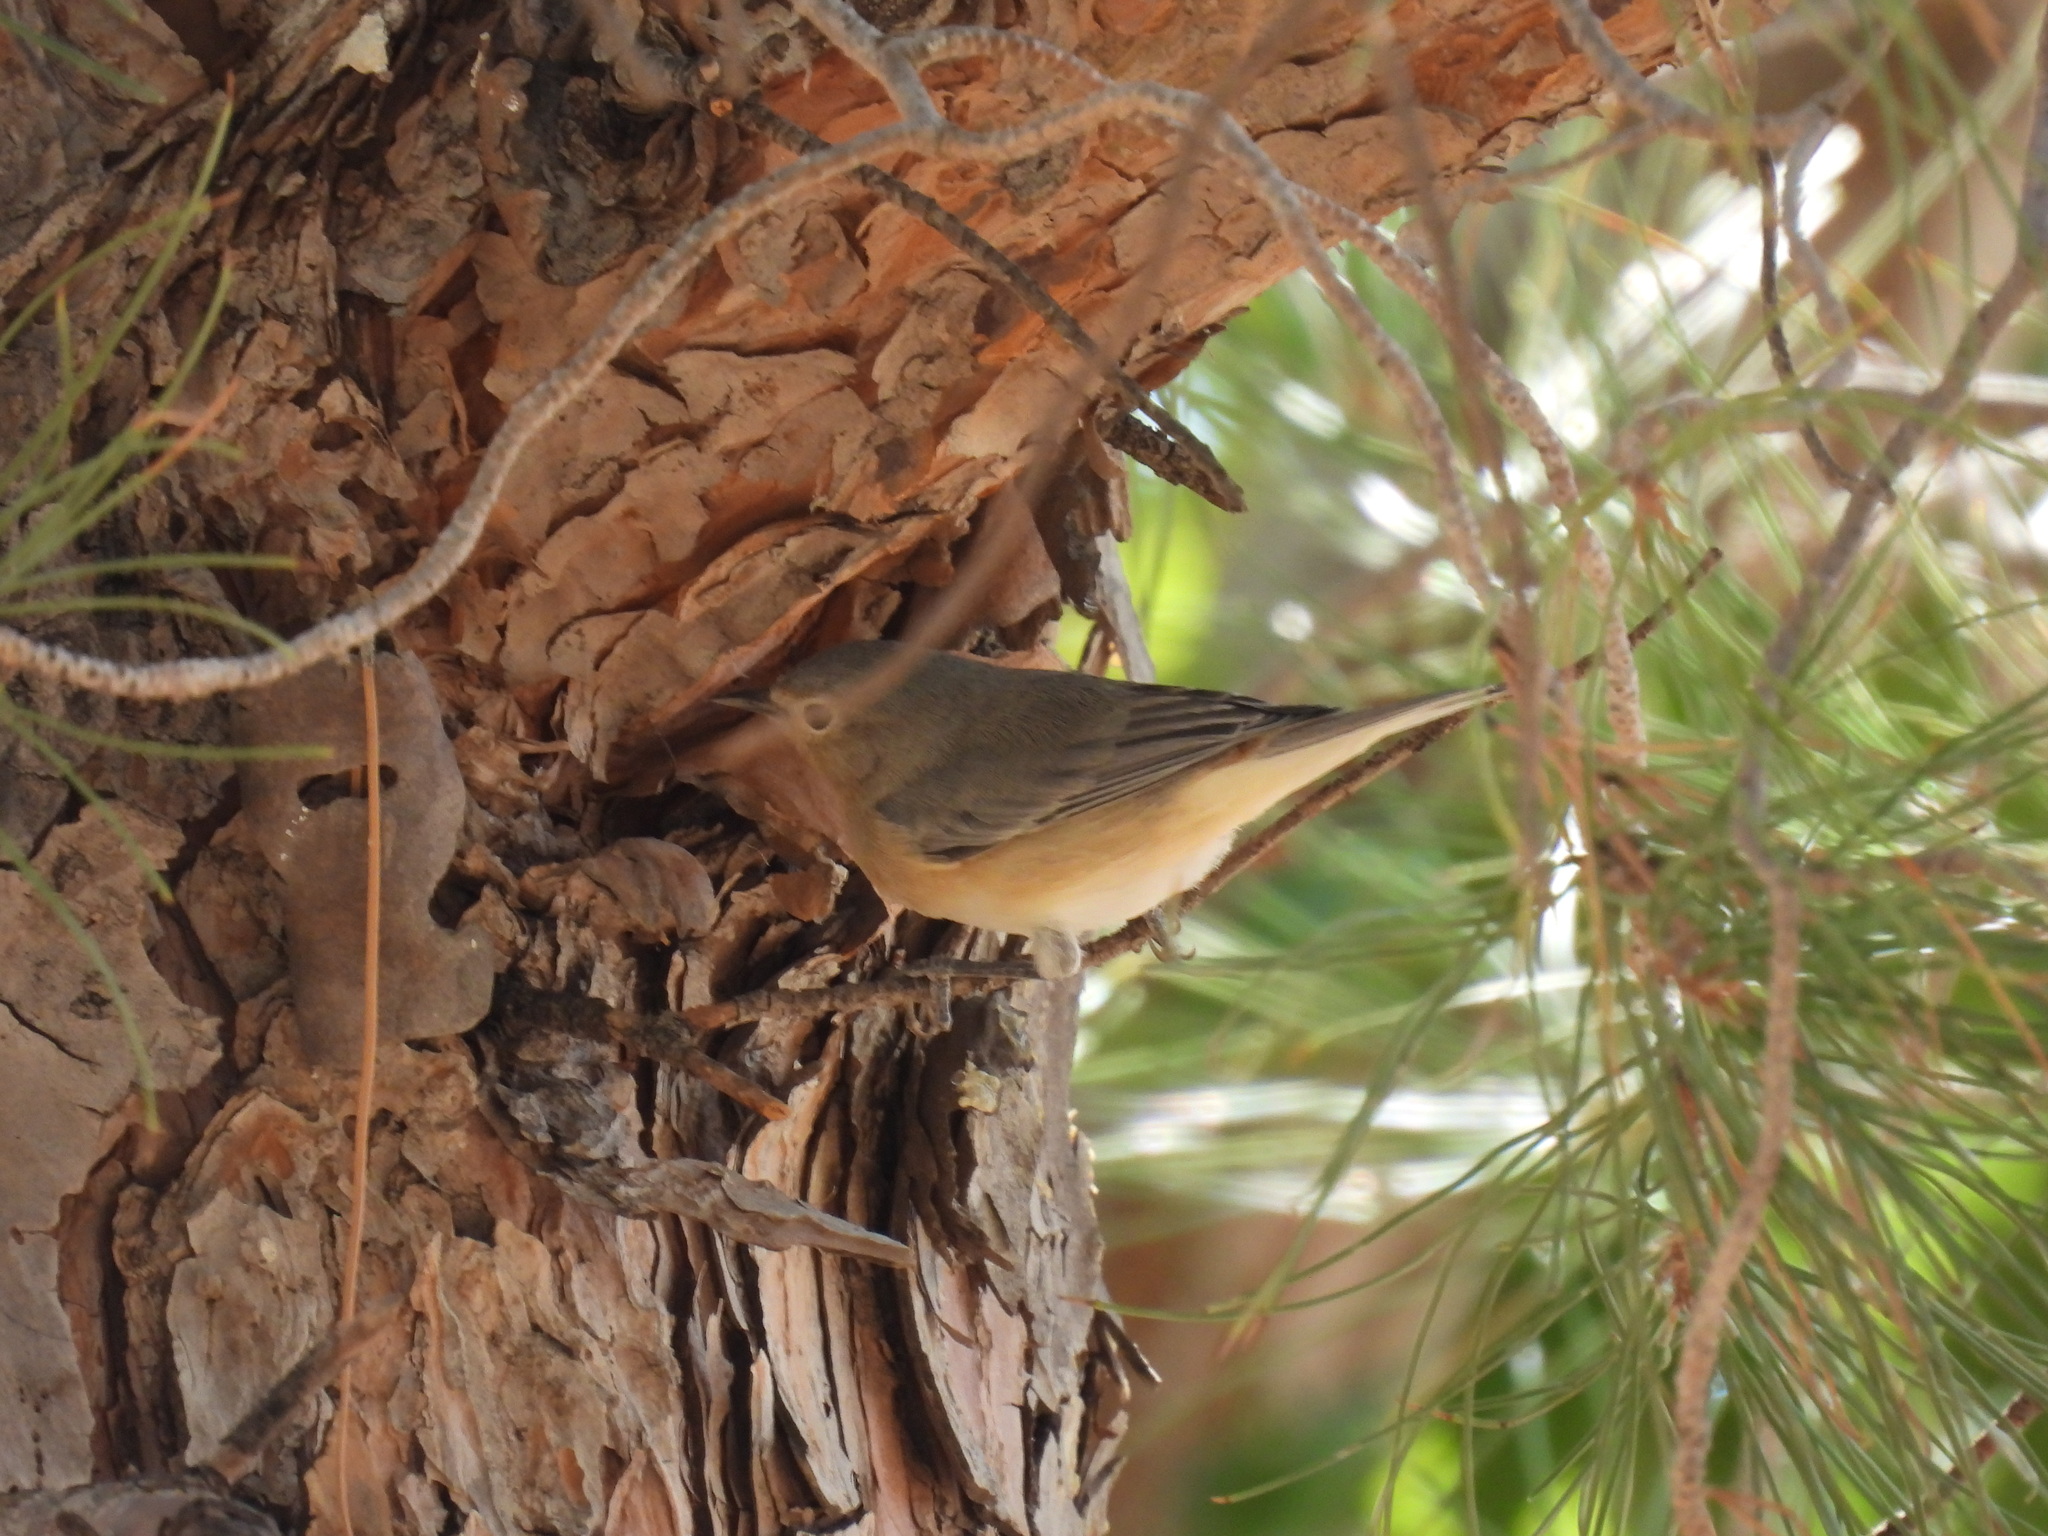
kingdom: Animalia
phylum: Chordata
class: Aves
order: Passeriformes
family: Parulidae
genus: Leiothlypis
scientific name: Leiothlypis luciae
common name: Lucy's warbler
